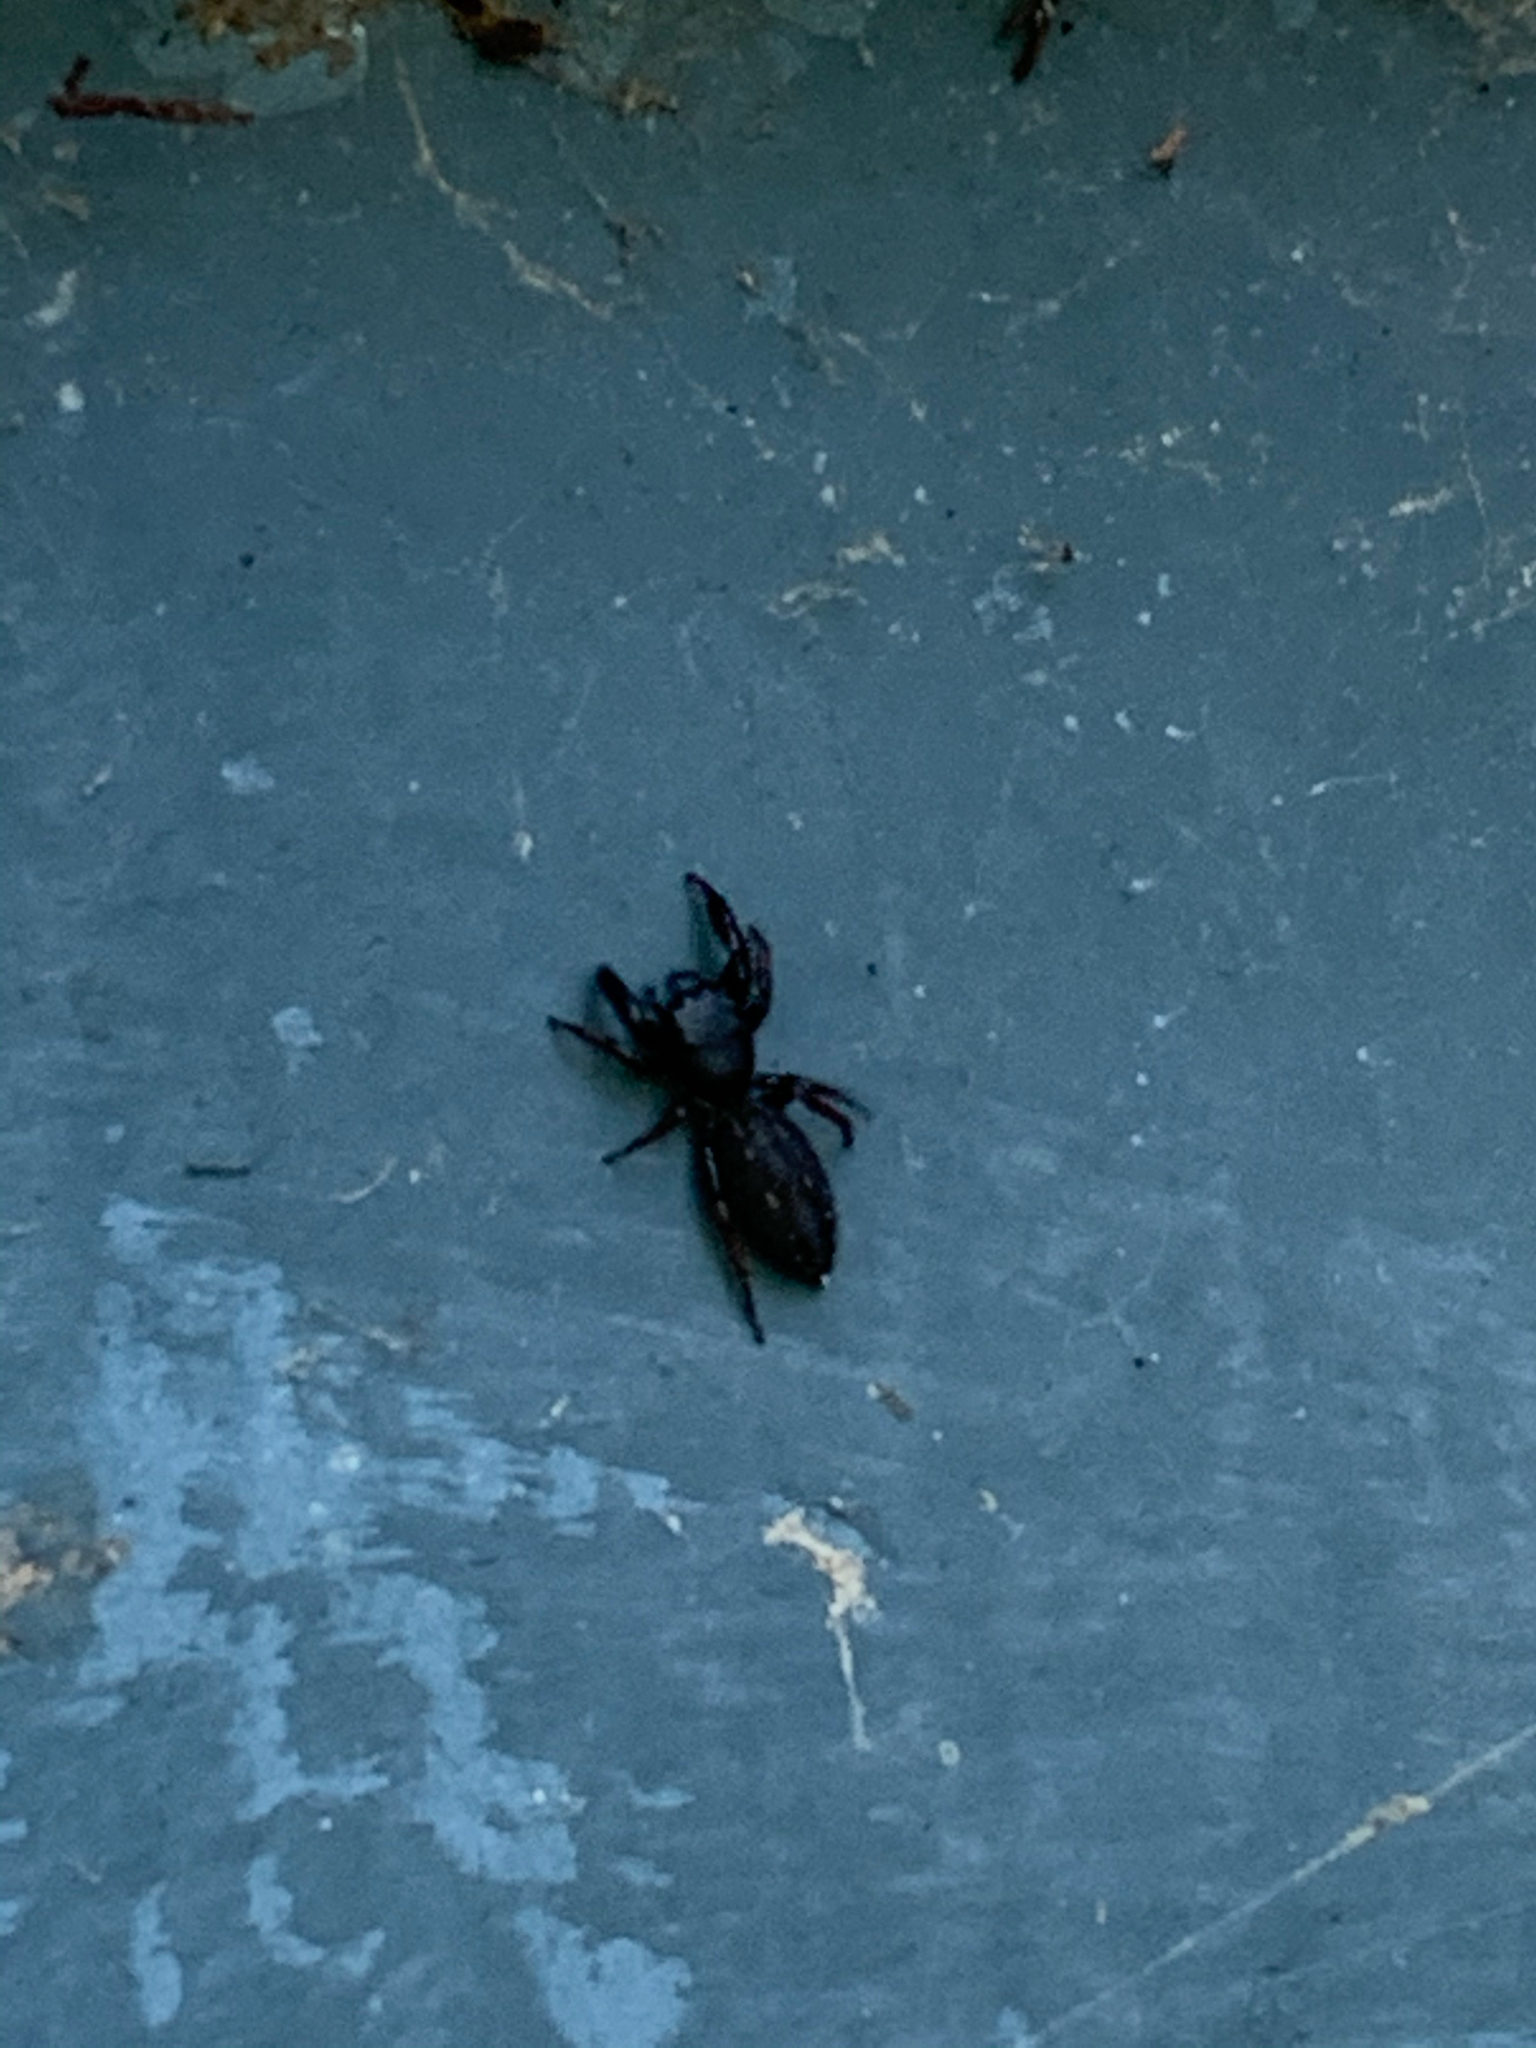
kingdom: Animalia
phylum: Arthropoda
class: Arachnida
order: Araneae
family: Salticidae
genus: Metacyrba
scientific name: Metacyrba taeniola
